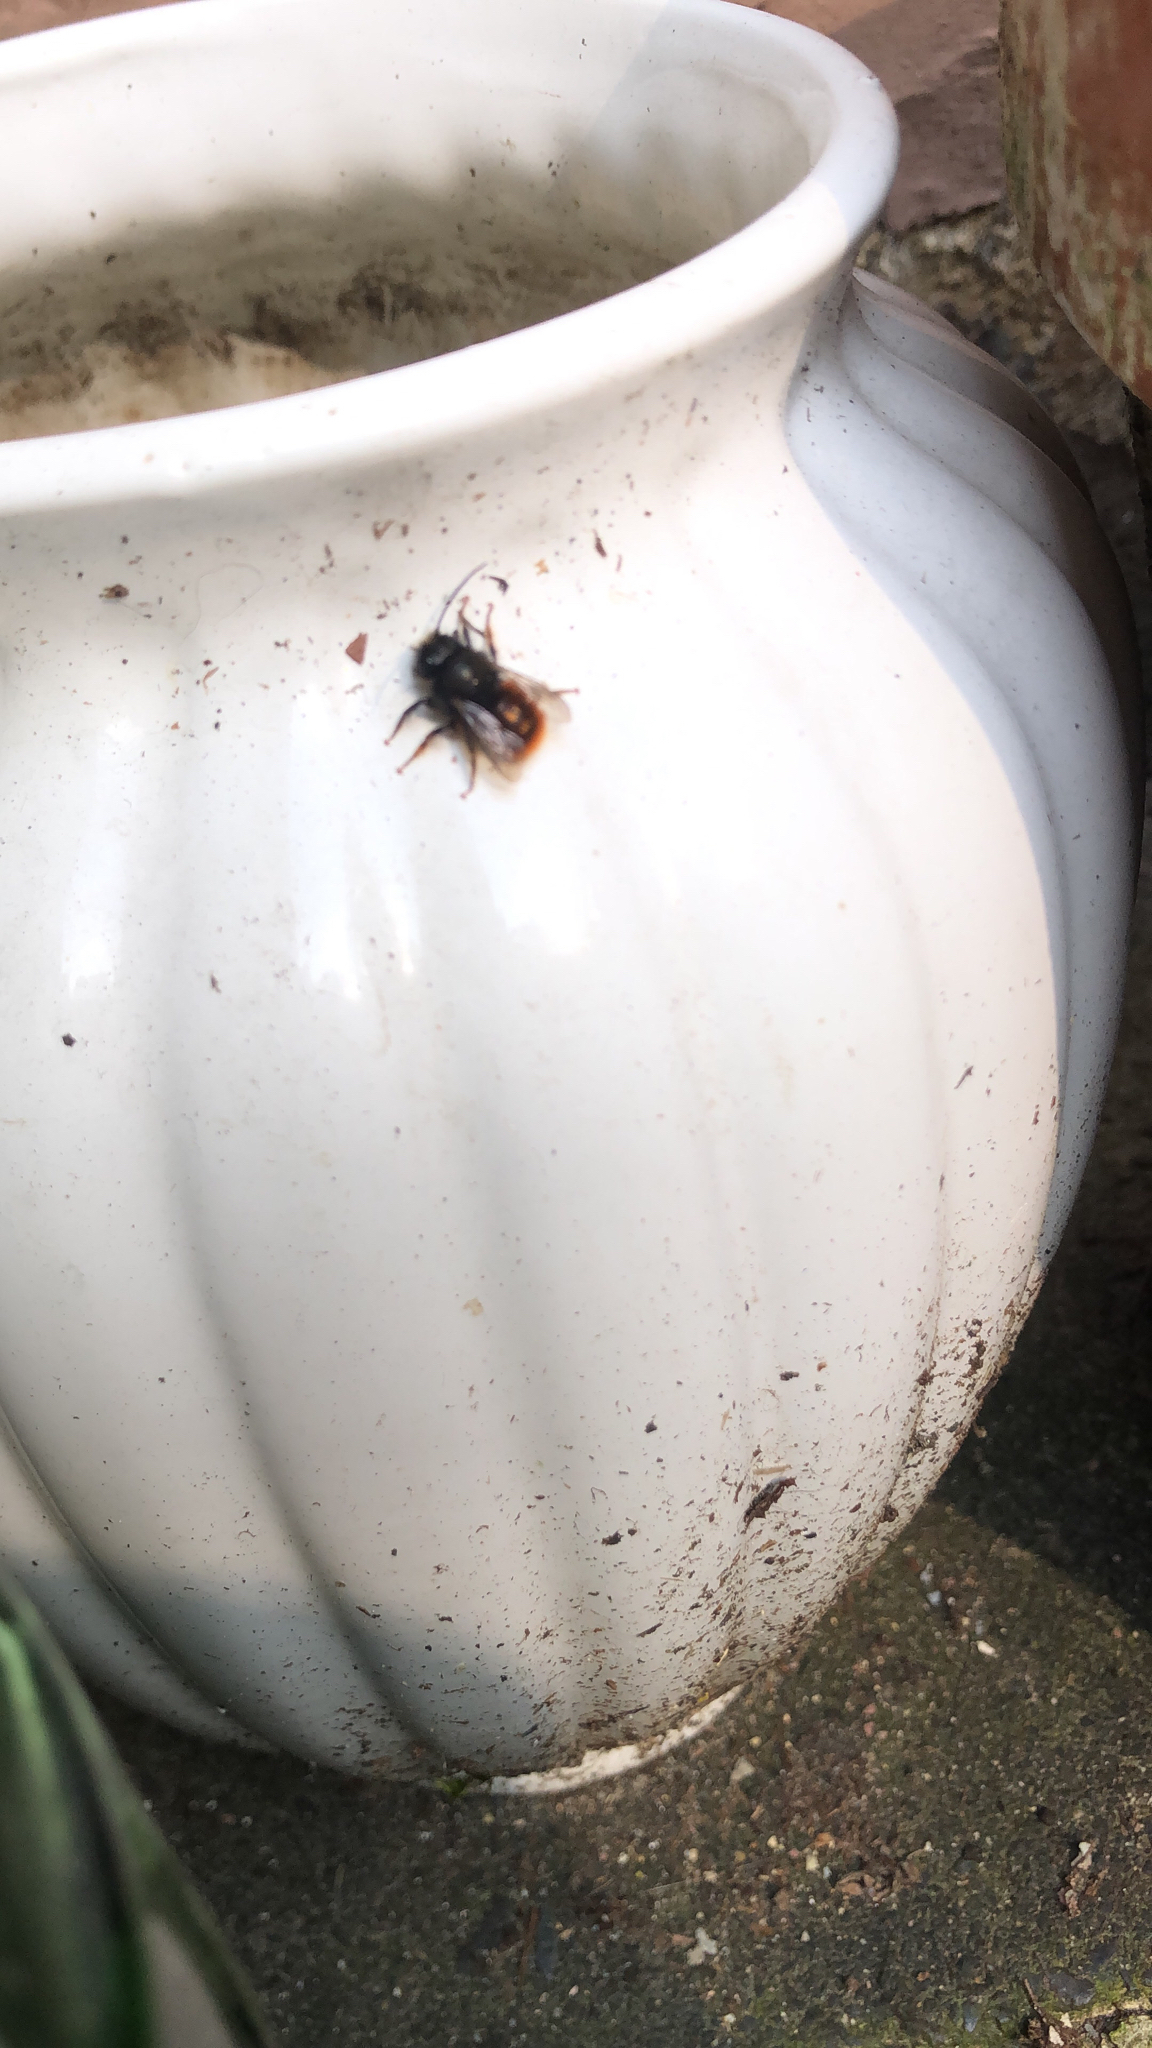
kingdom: Animalia
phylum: Arthropoda
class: Insecta
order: Hymenoptera
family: Megachilidae
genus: Osmia
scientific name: Osmia cornuta
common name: Mason bee
